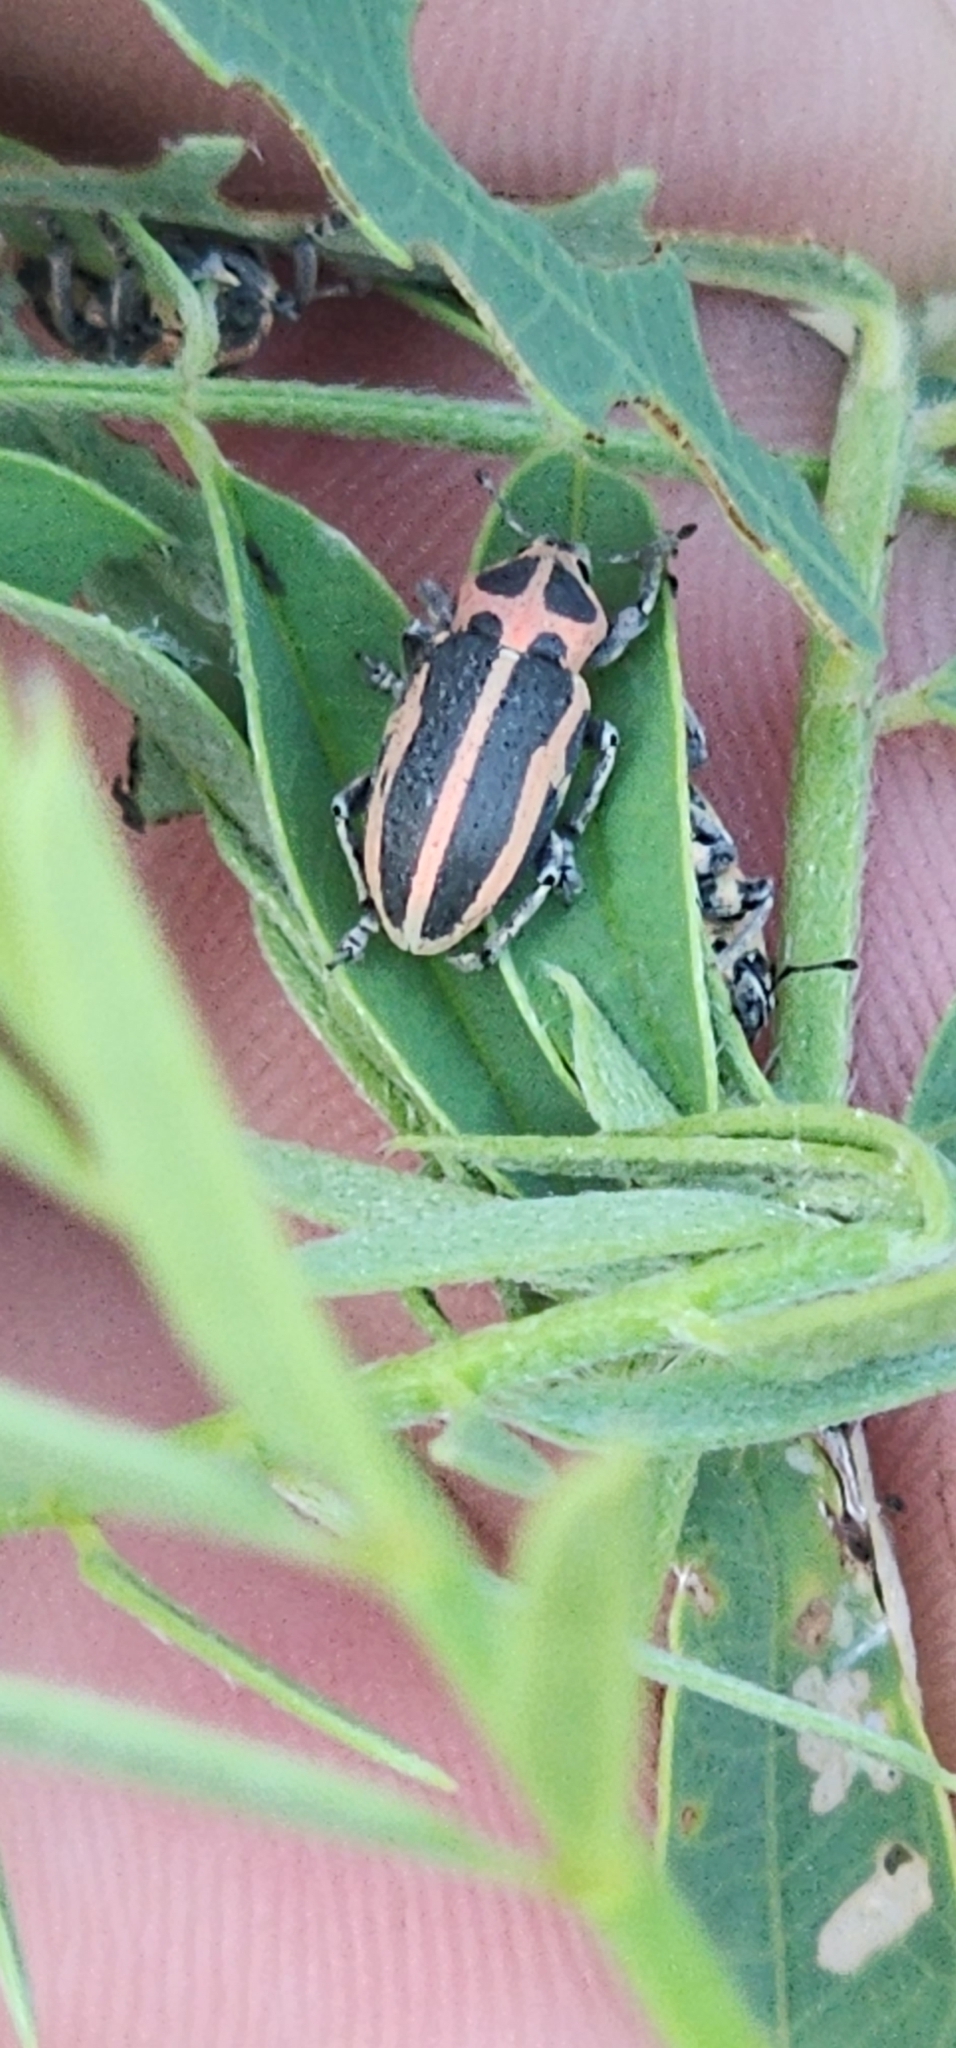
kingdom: Animalia
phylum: Arthropoda
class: Insecta
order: Coleoptera
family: Curculionidae
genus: Eudiagogus
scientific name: Eudiagogus pulcher
